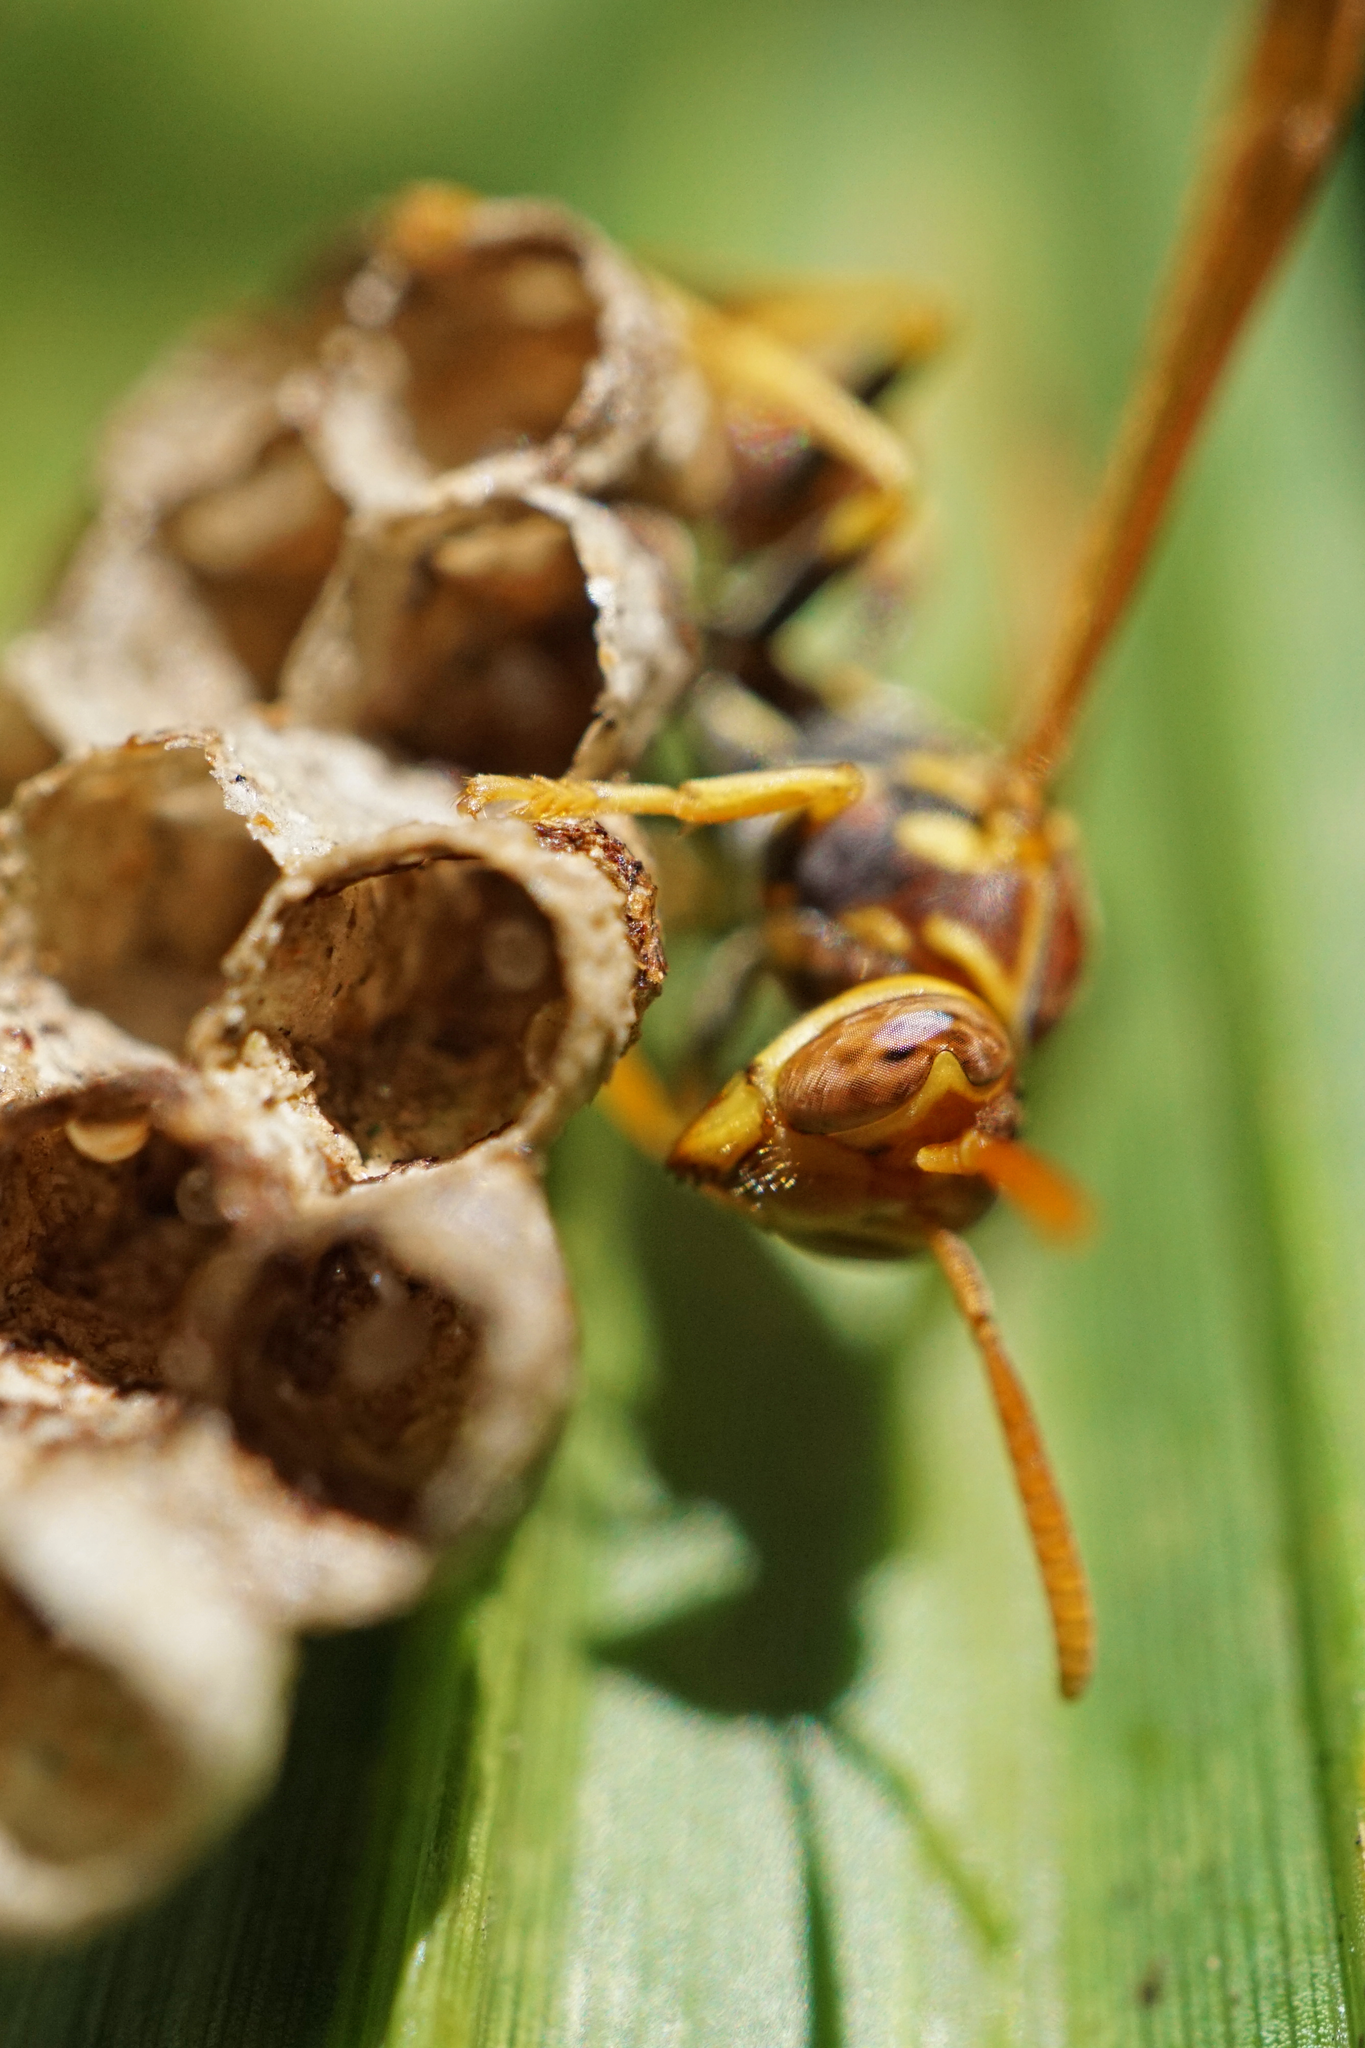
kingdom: Animalia
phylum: Arthropoda
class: Insecta
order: Hymenoptera
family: Vespidae
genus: Mischocyttarus
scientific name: Mischocyttarus mexicanus
